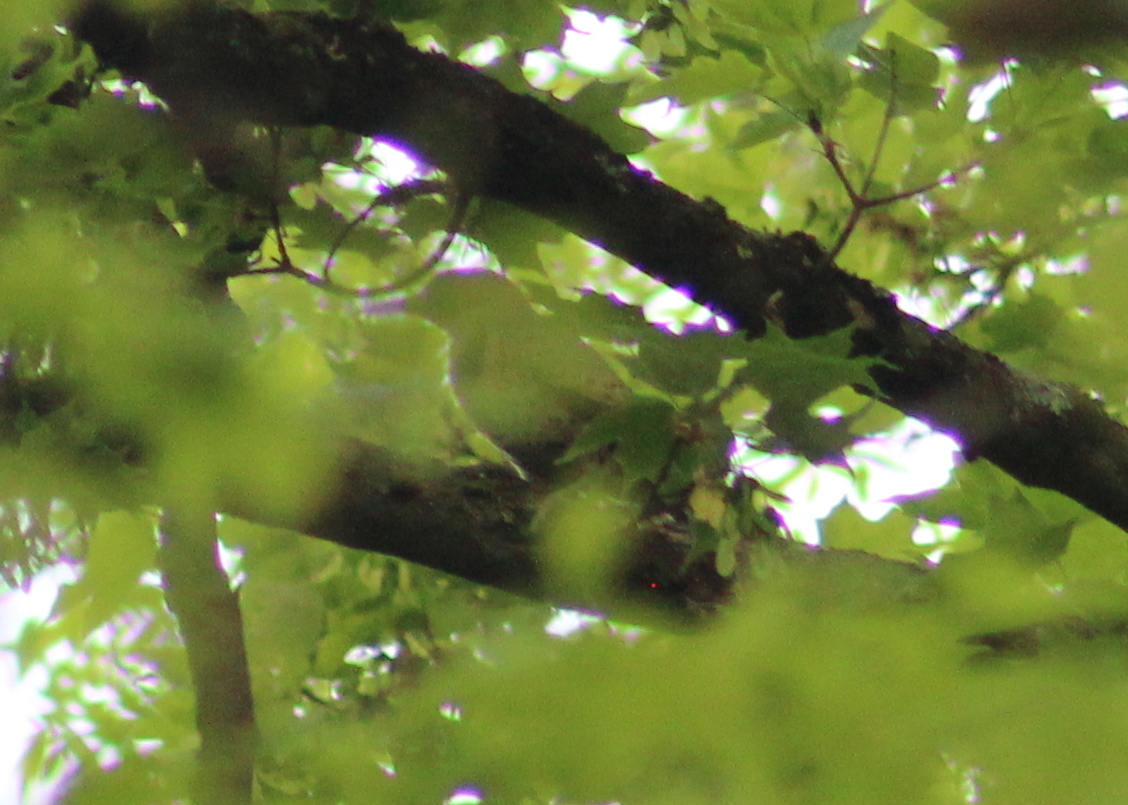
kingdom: Animalia
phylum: Chordata
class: Aves
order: Piciformes
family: Picidae
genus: Colaptes
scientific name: Colaptes auratus
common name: Northern flicker
